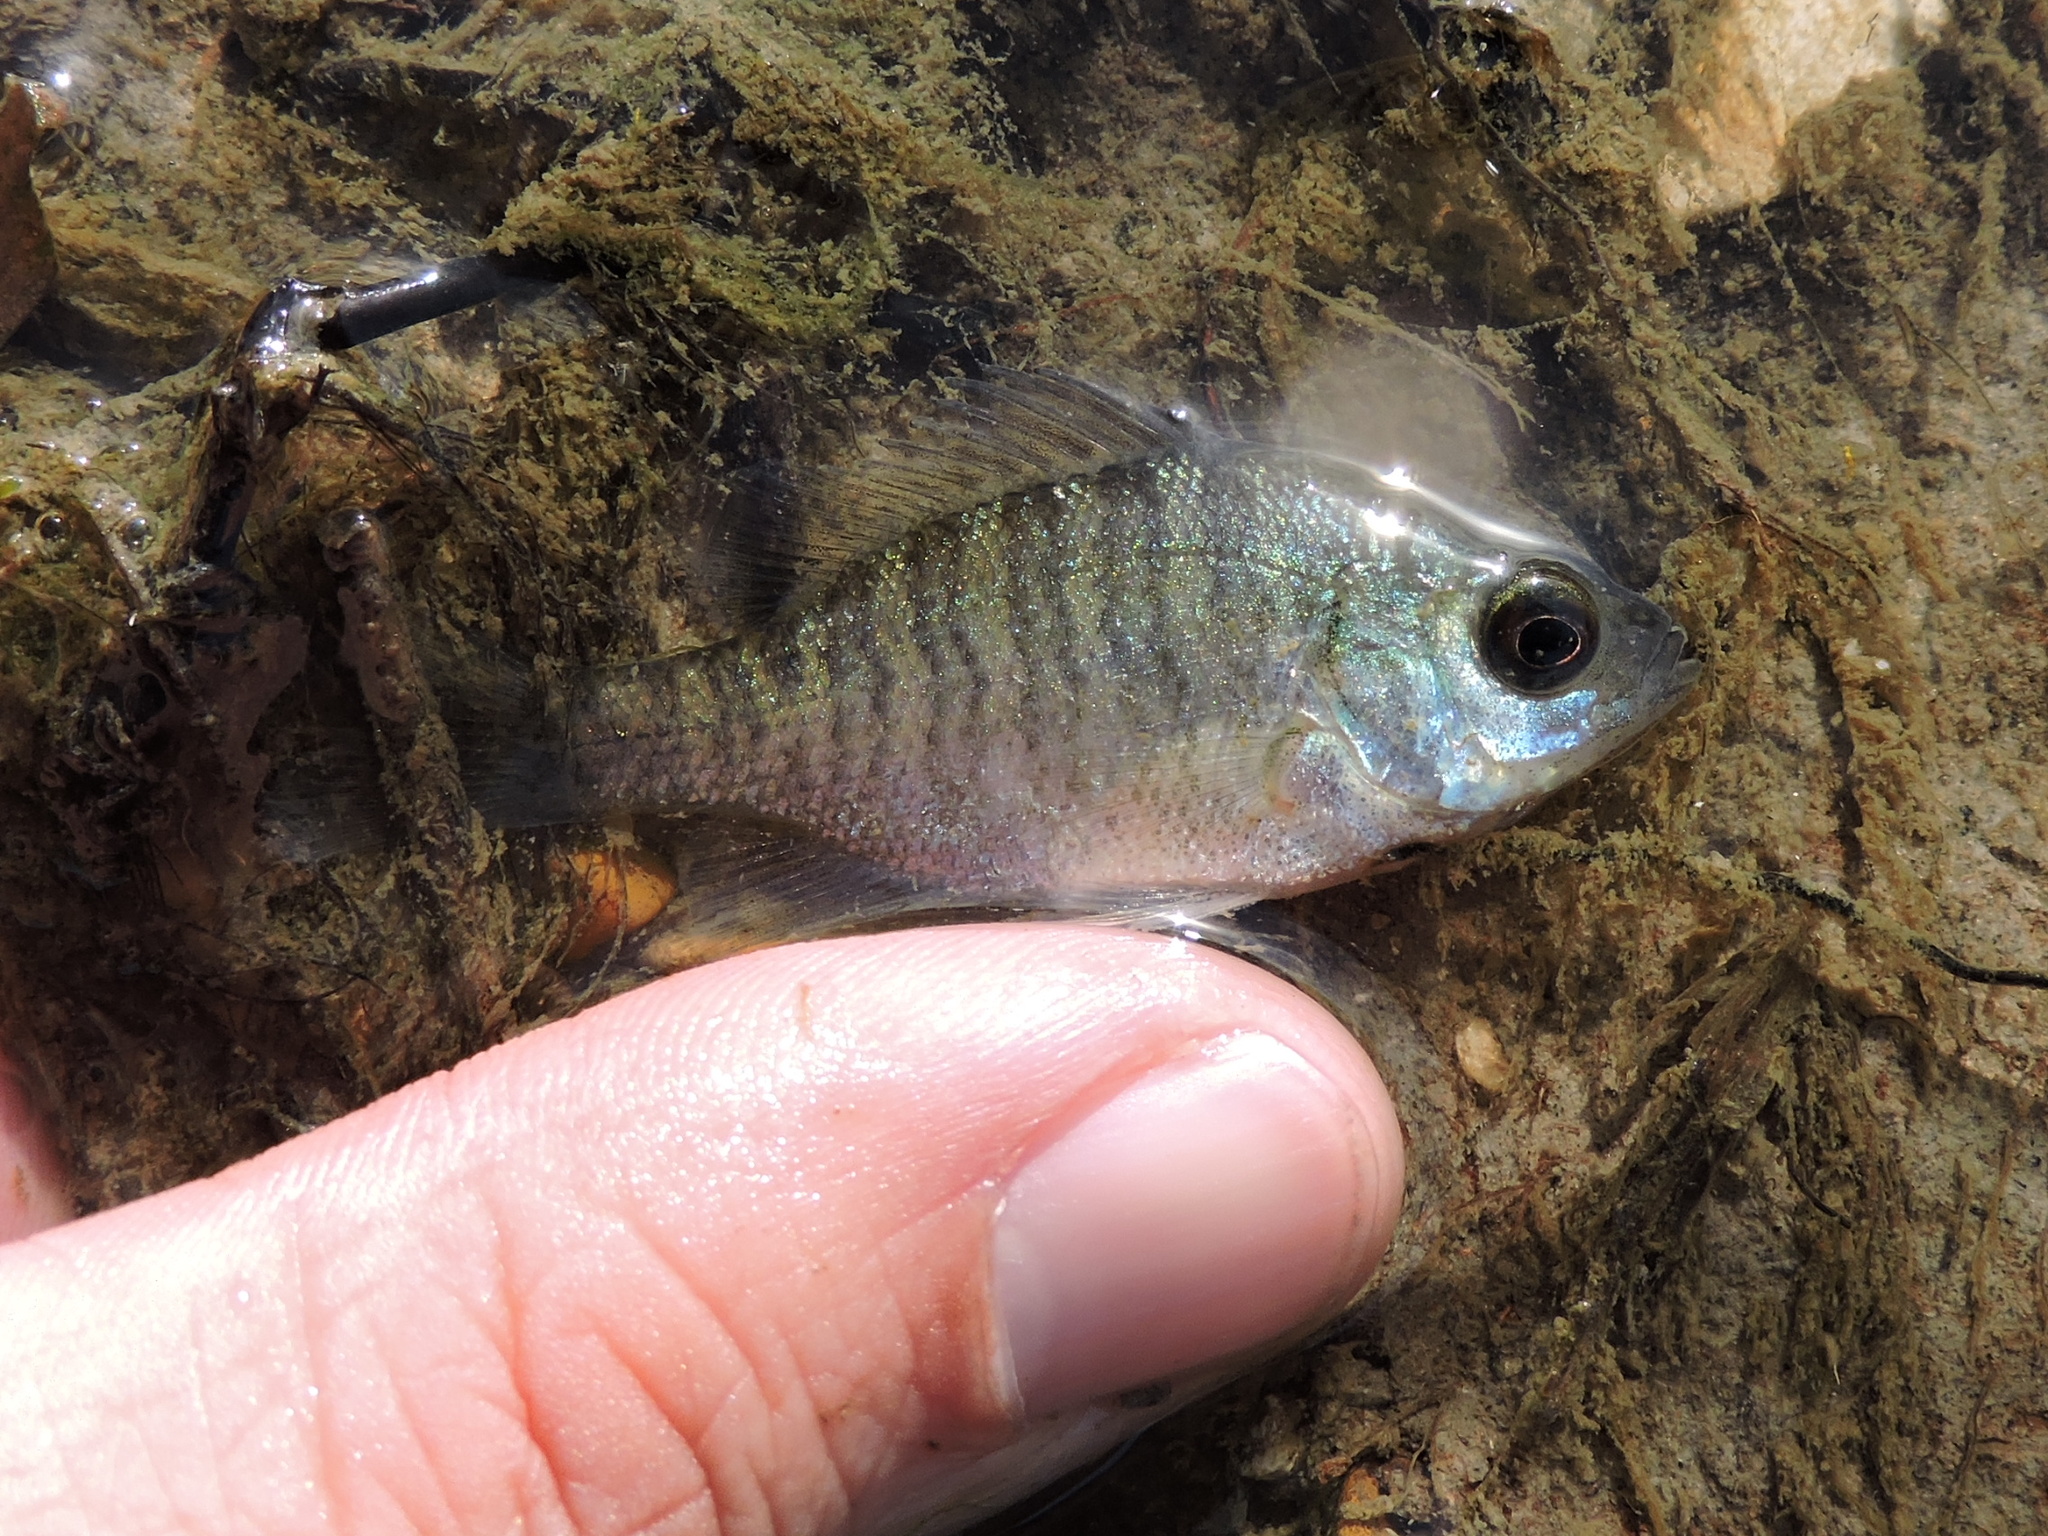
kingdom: Animalia
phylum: Chordata
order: Perciformes
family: Centrarchidae
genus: Lepomis
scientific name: Lepomis macrochirus
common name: Bluegill
